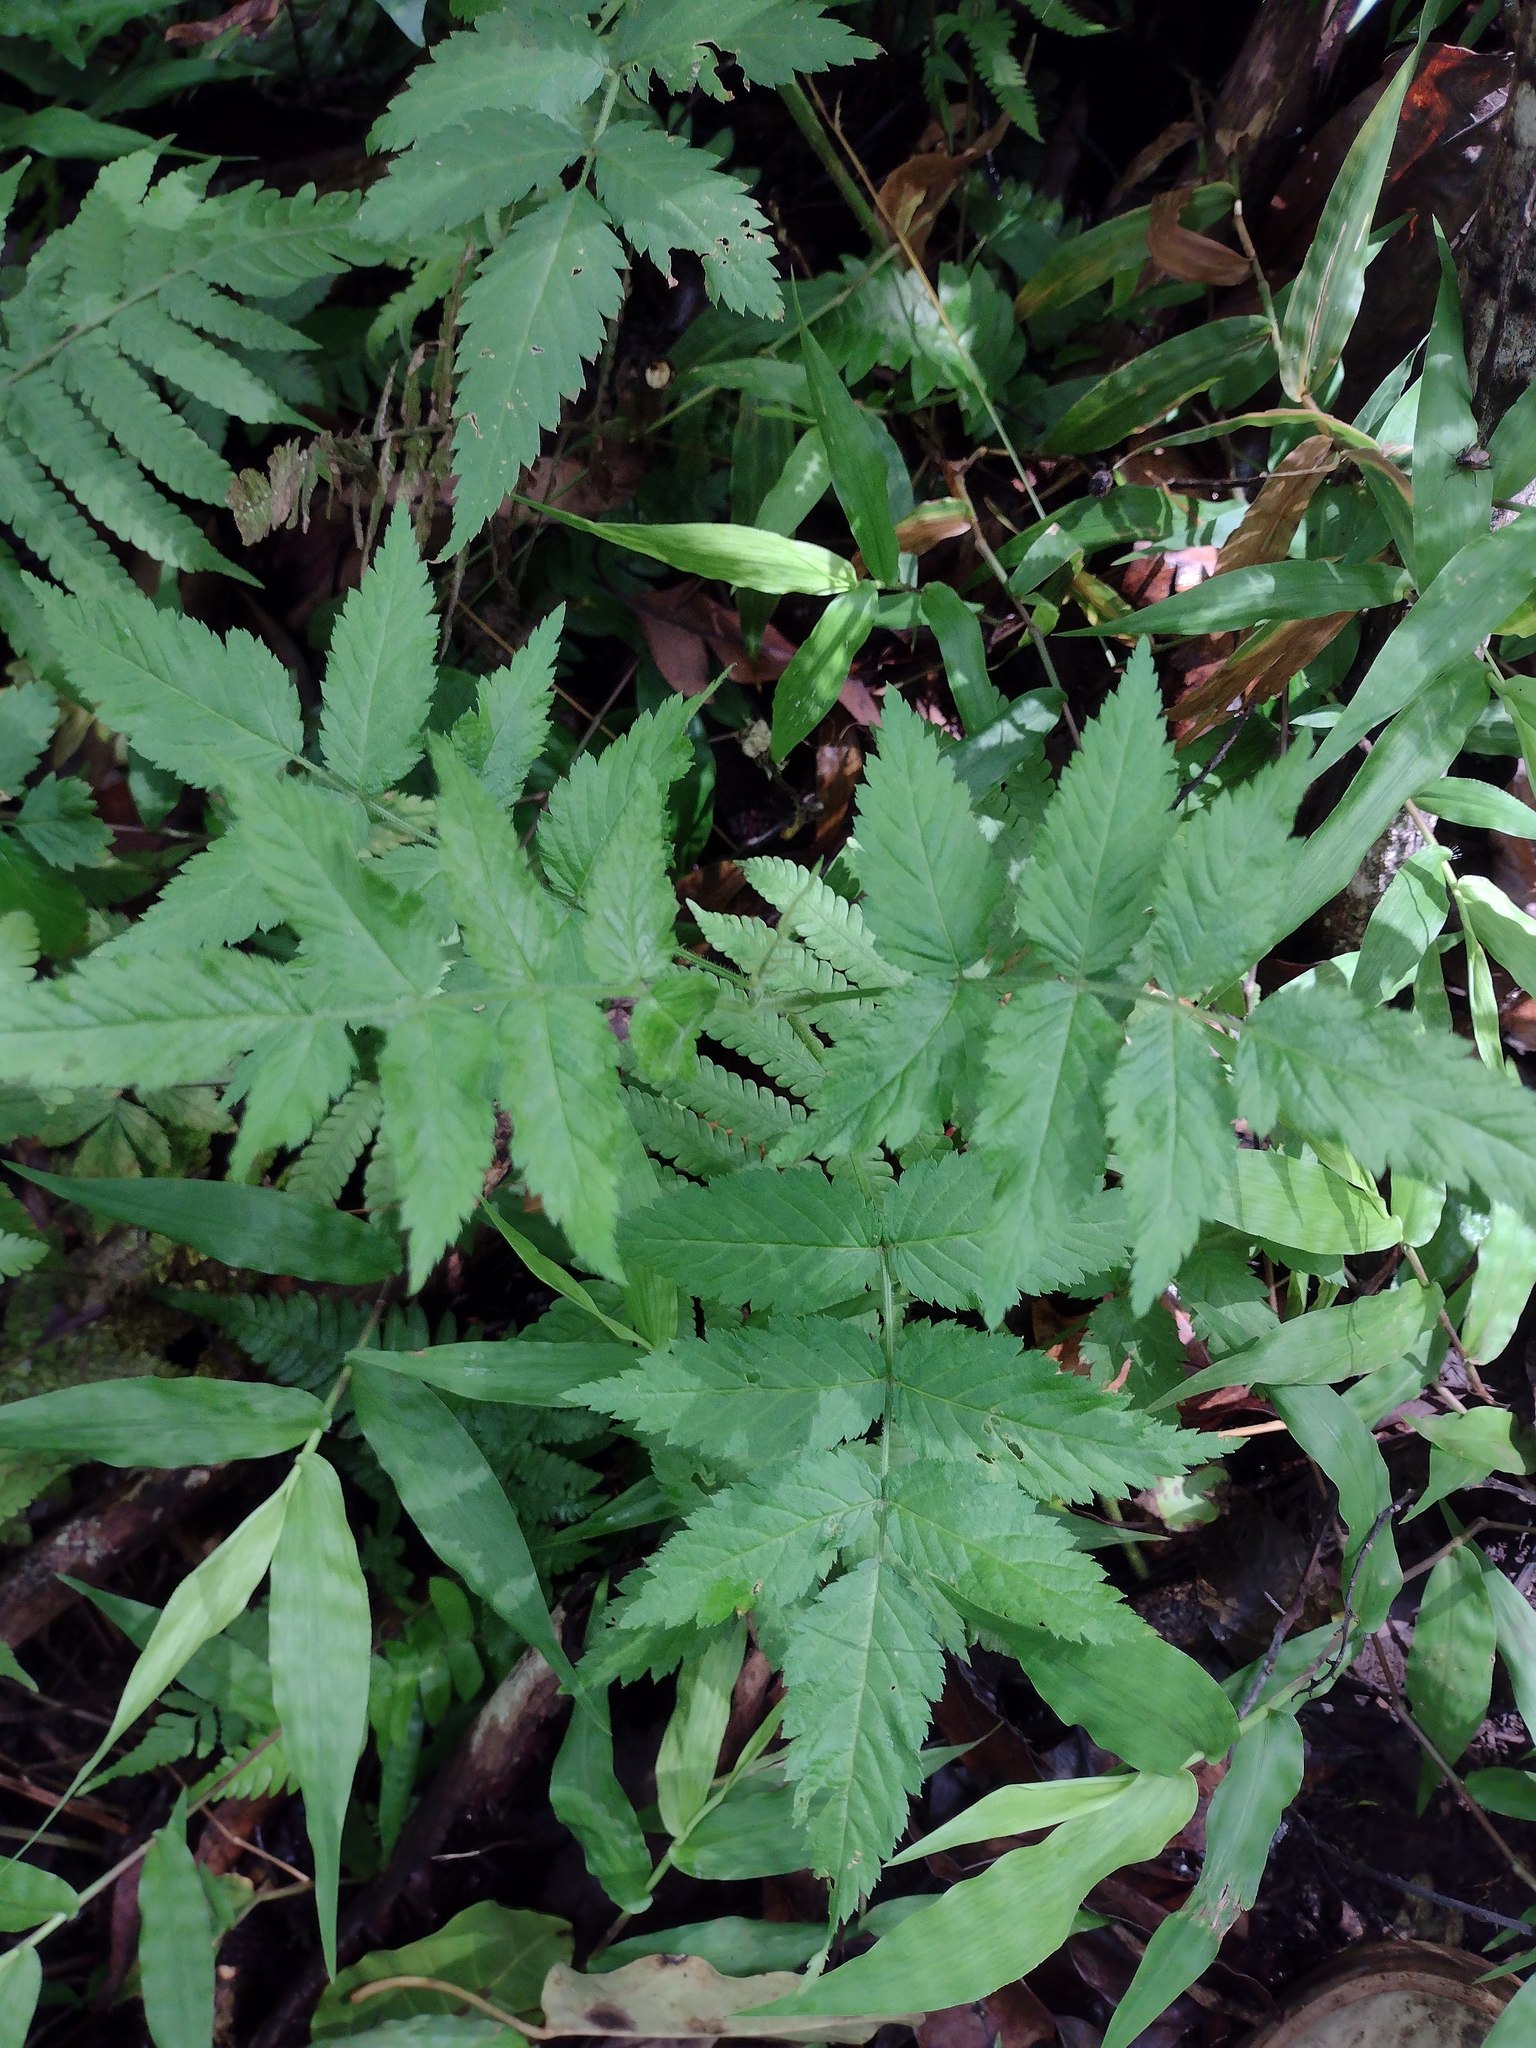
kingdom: Plantae
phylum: Tracheophyta
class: Magnoliopsida
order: Rosales
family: Rosaceae
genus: Rubus
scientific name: Rubus rosifolius
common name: Roseleaf raspberry
